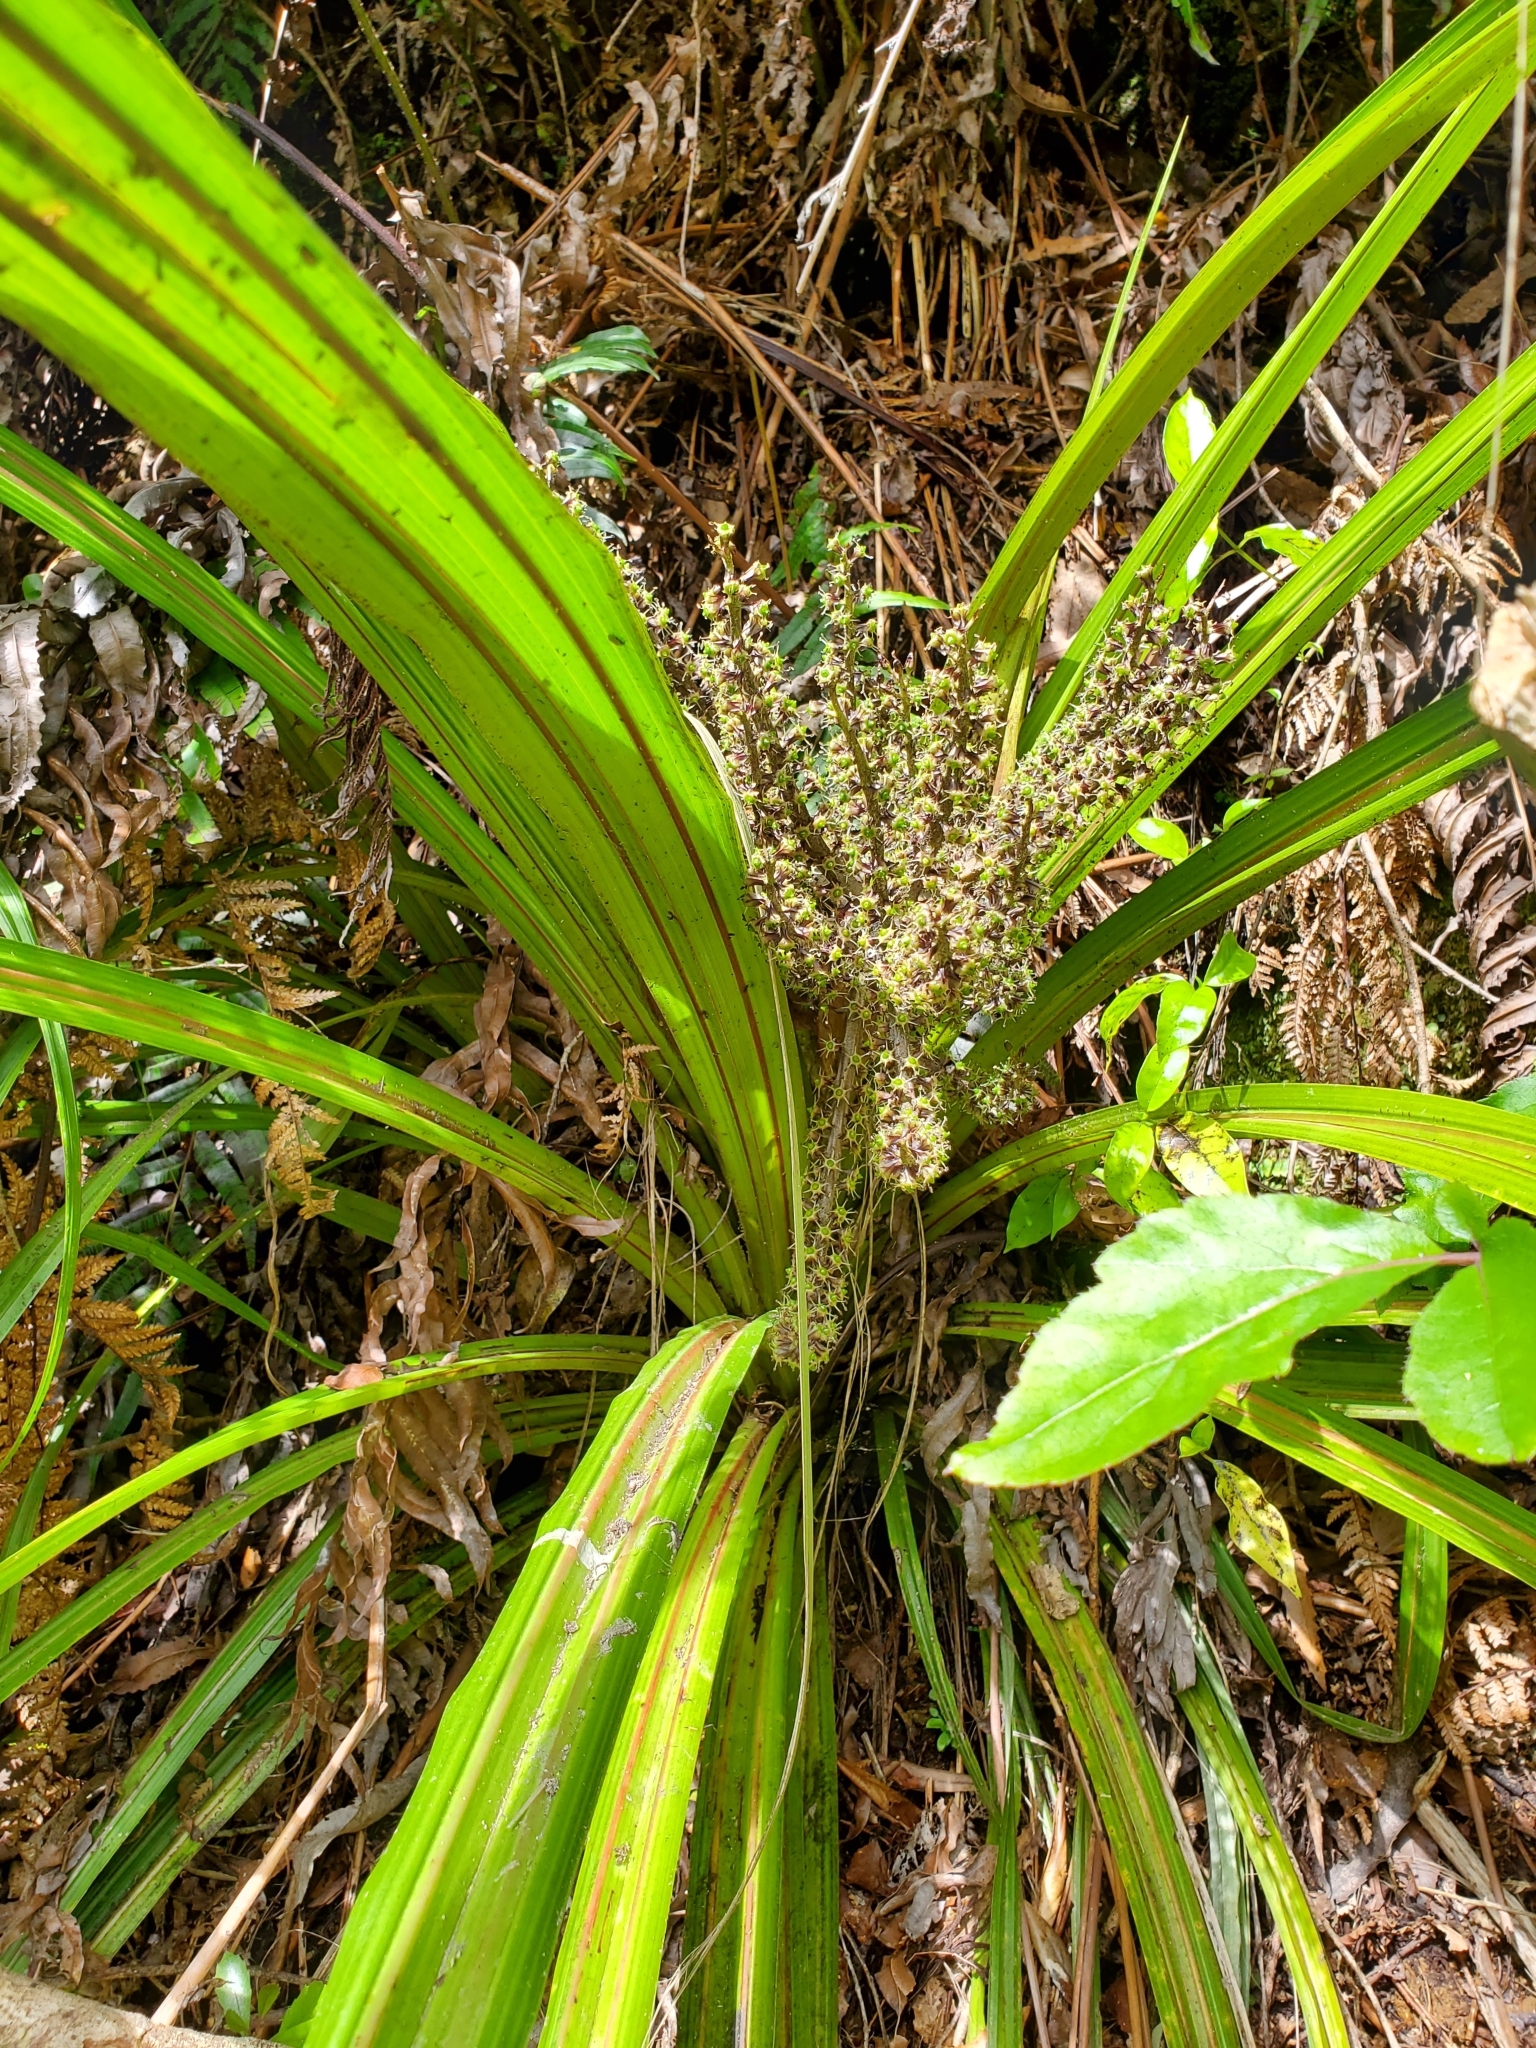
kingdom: Plantae
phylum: Tracheophyta
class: Liliopsida
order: Asparagales
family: Asteliaceae
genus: Astelia
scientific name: Astelia fragrans
